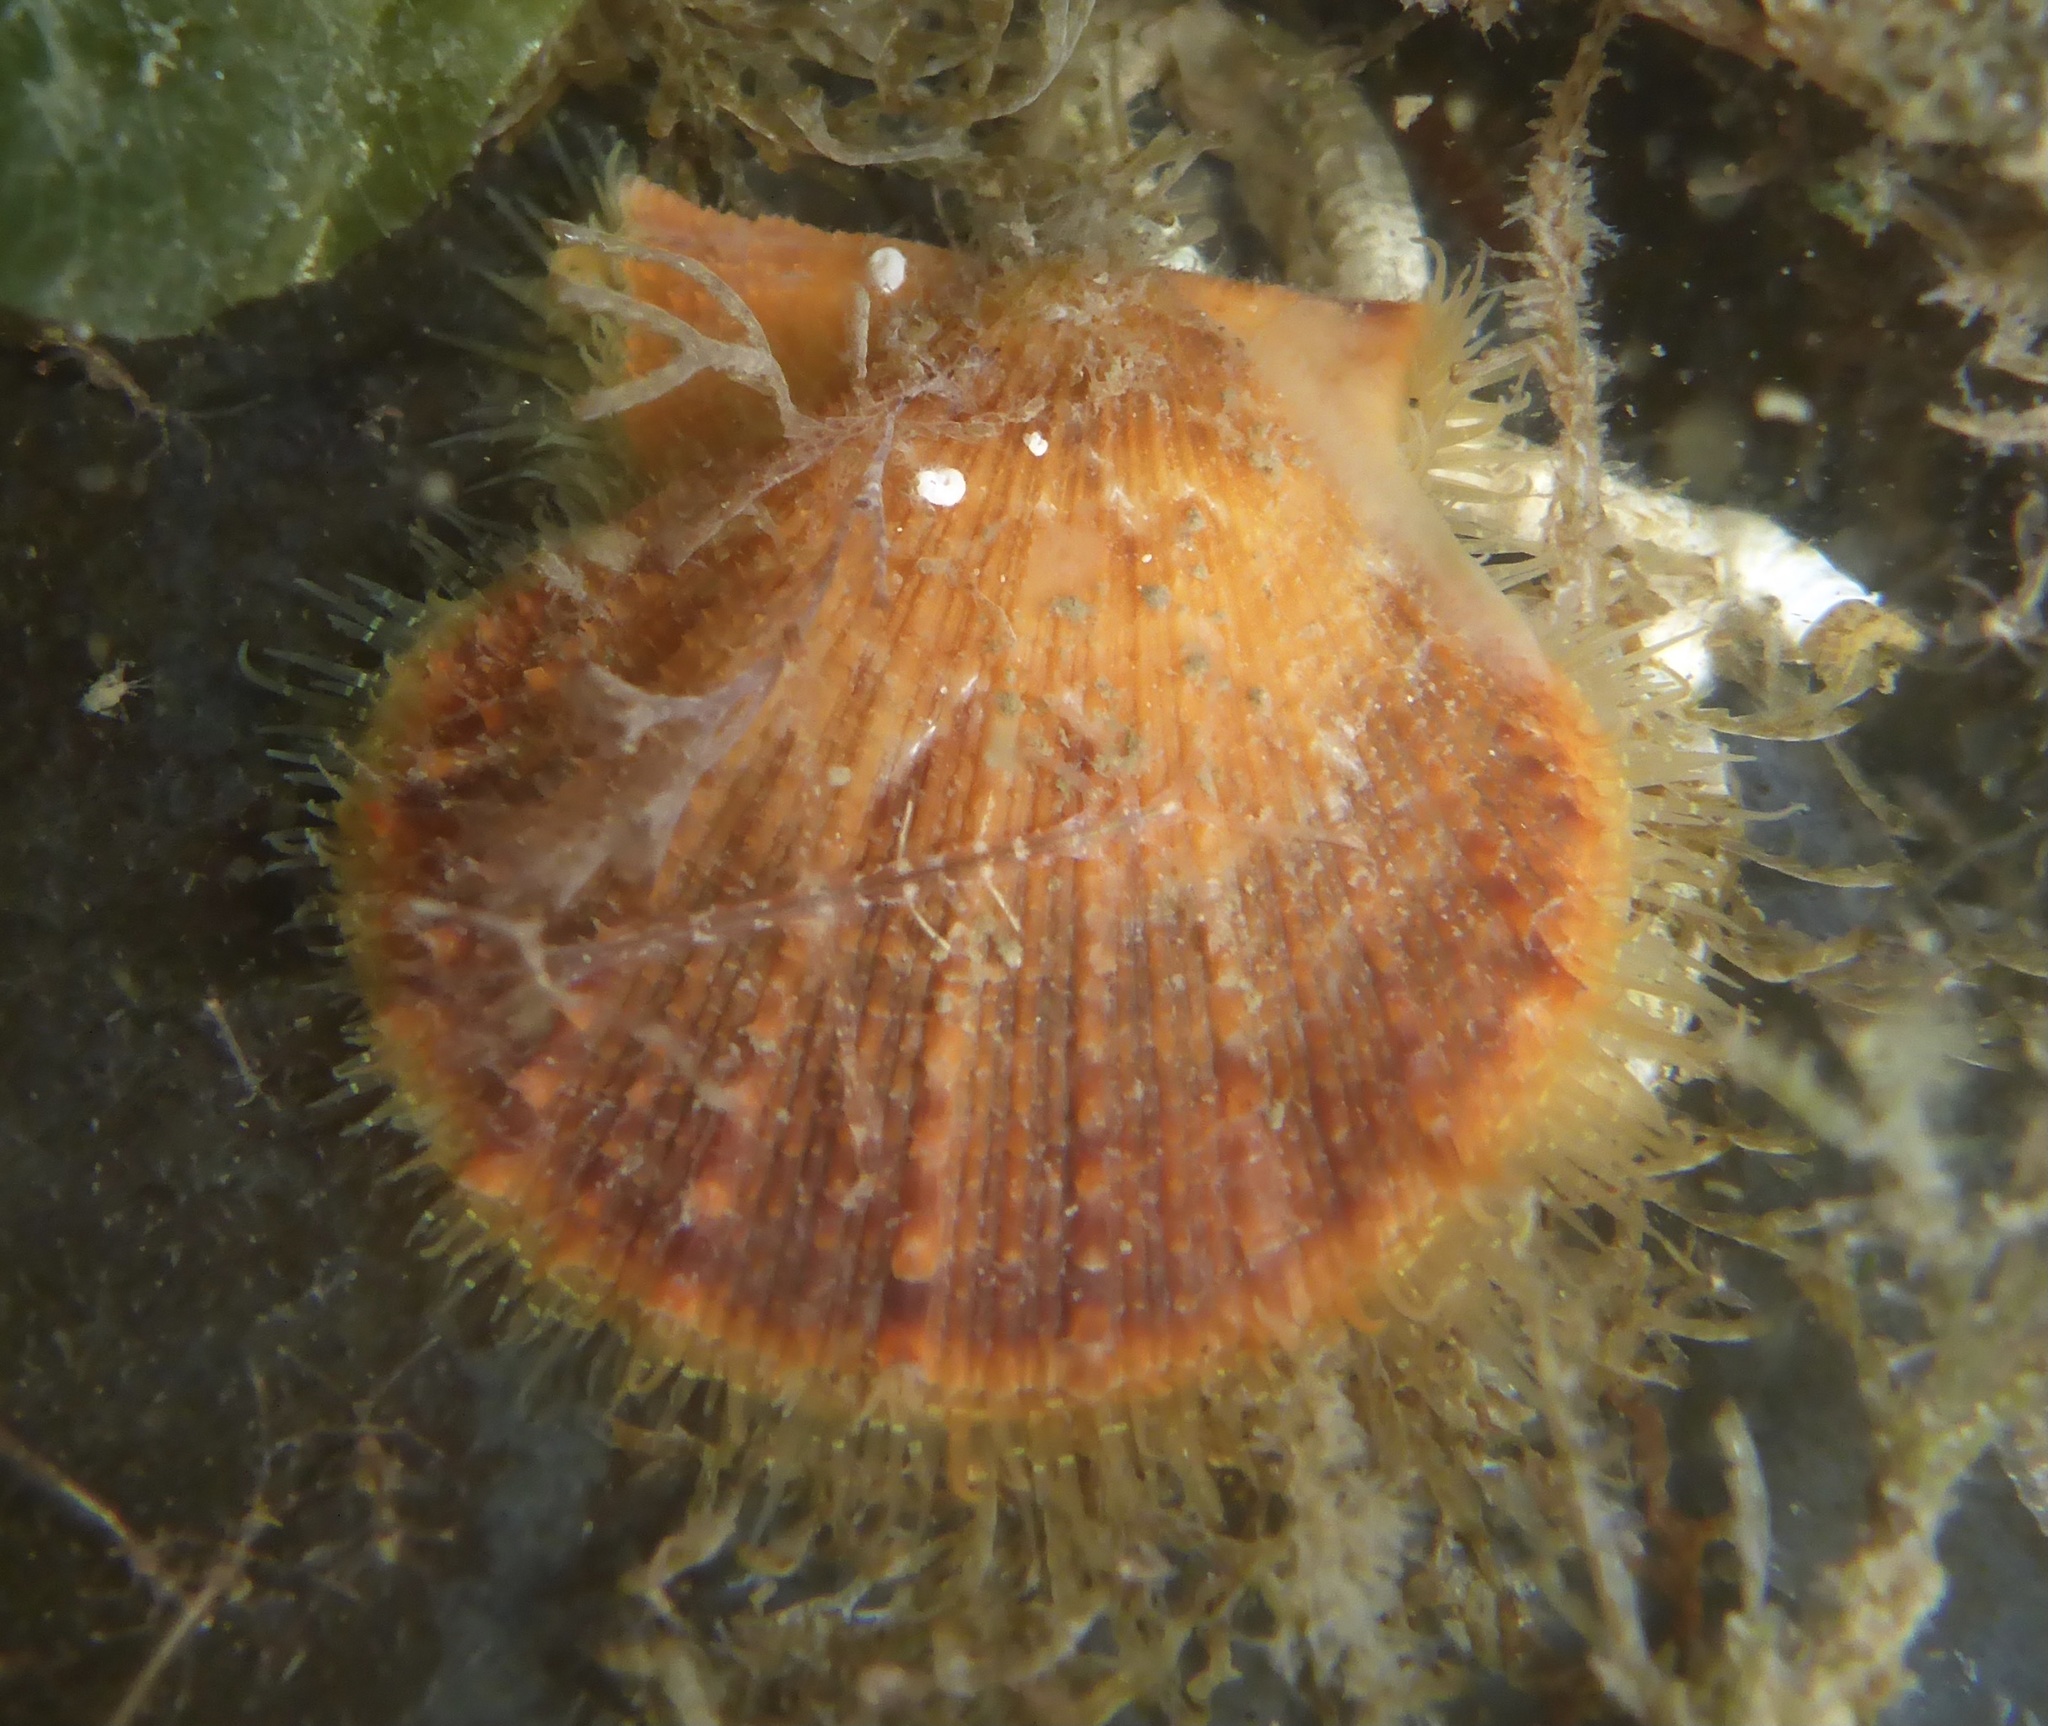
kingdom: Animalia
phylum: Mollusca
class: Bivalvia
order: Pectinida
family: Pectinidae
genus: Crassadoma
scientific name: Crassadoma gigantea
